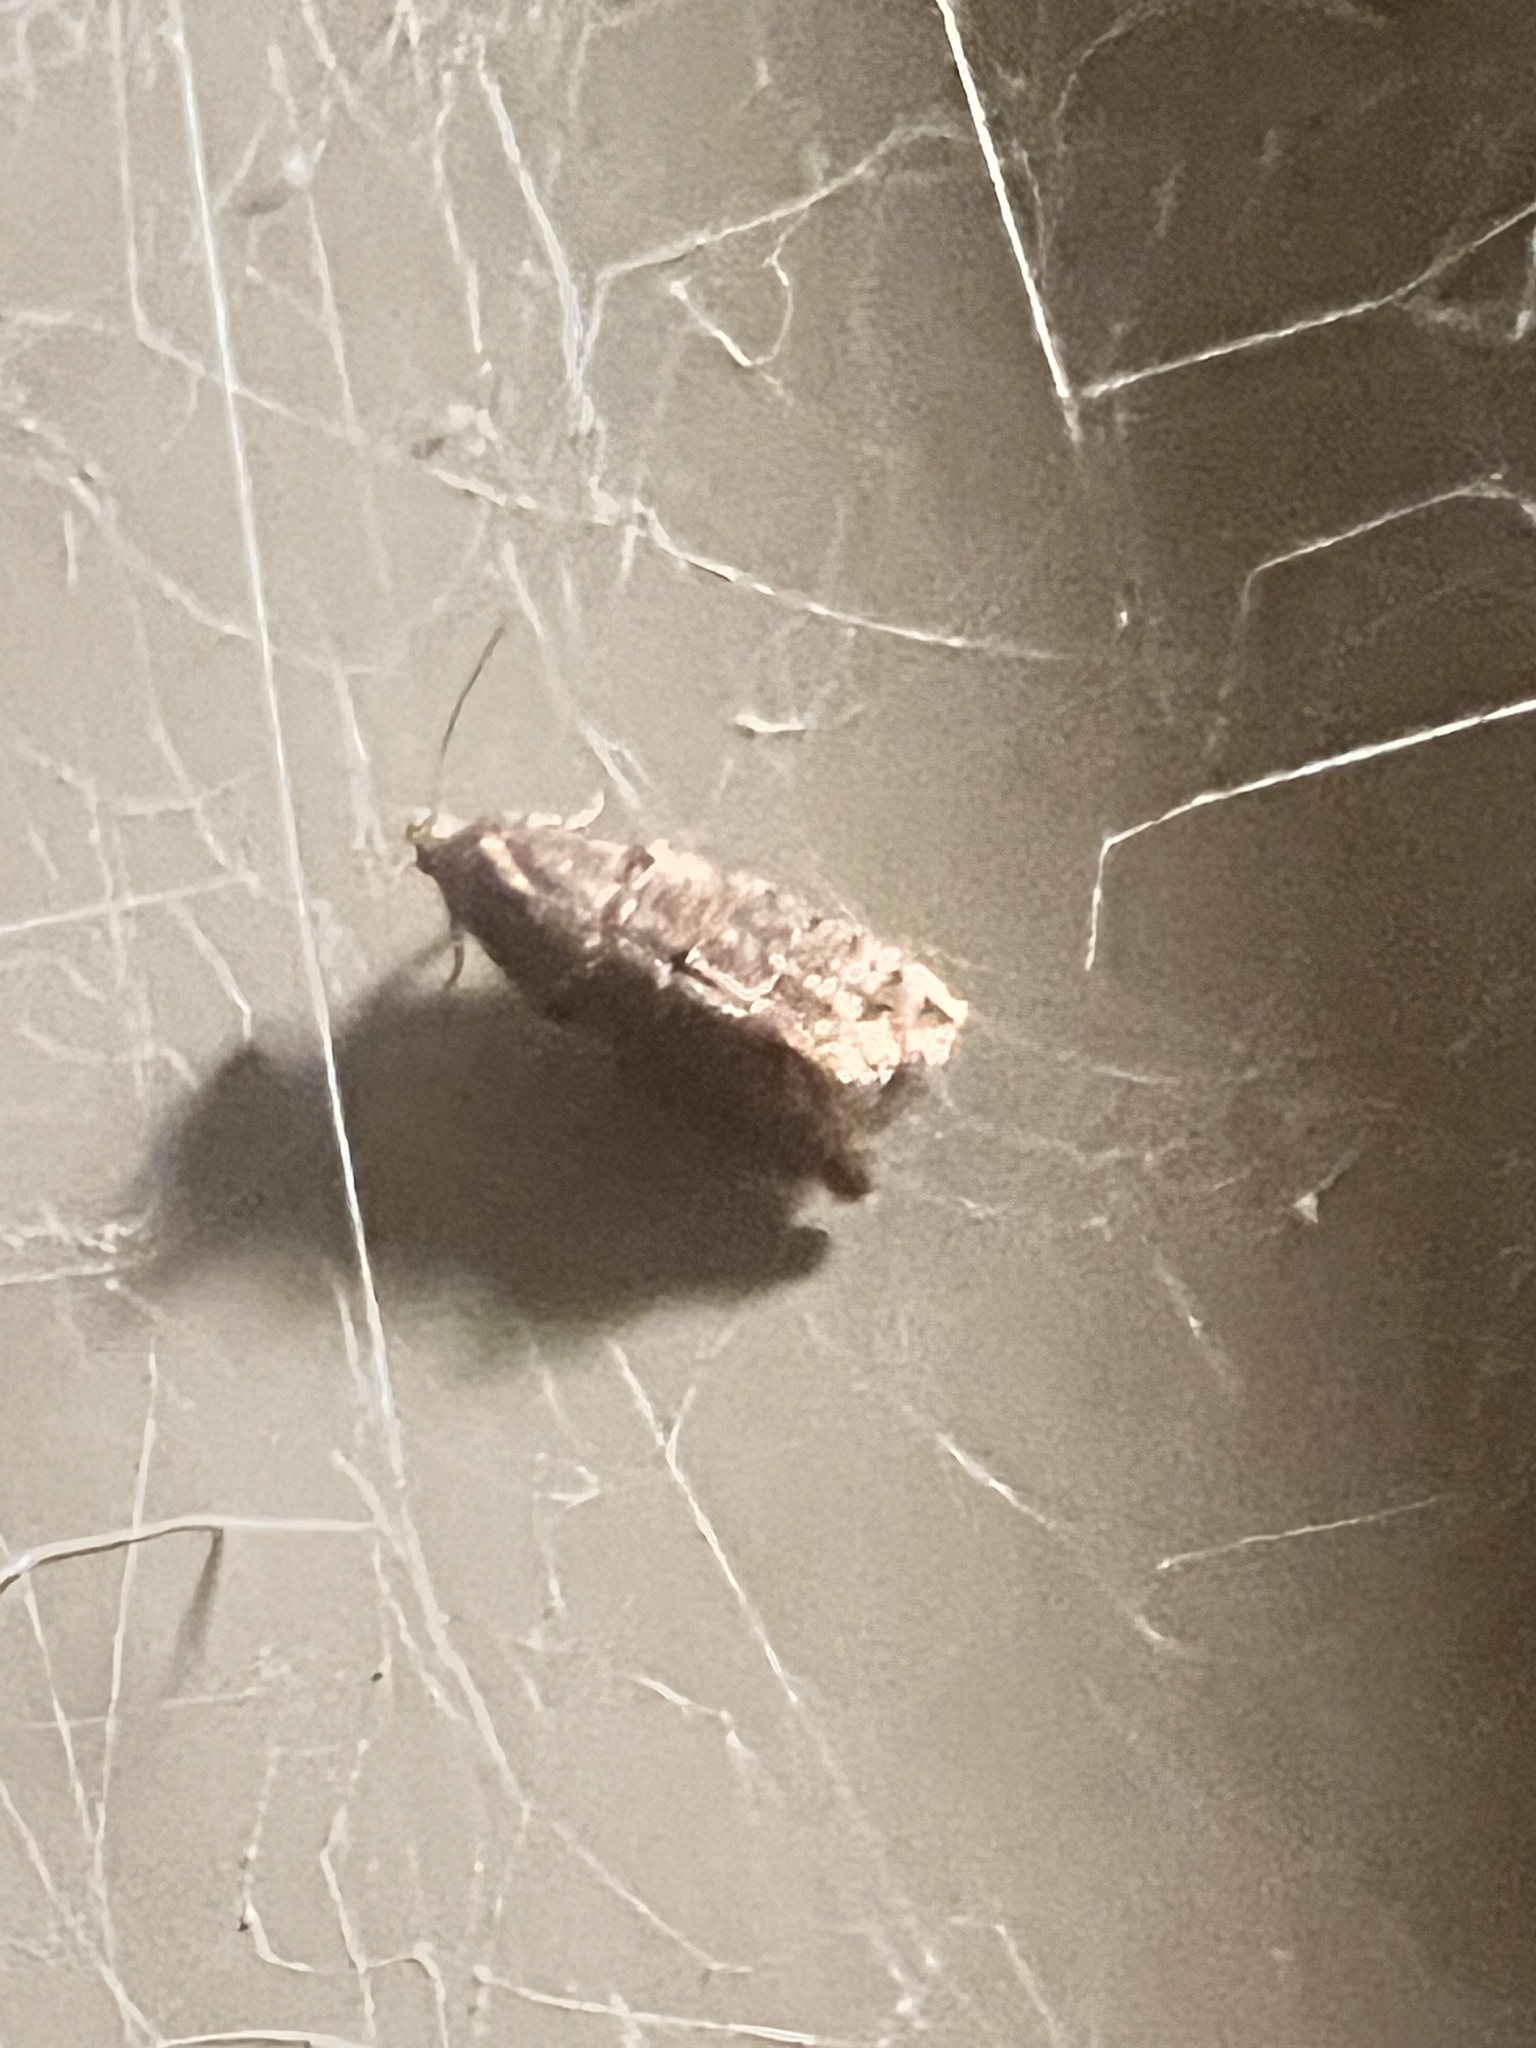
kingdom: Animalia
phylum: Arthropoda
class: Insecta
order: Lepidoptera
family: Tortricidae
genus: Lopharcha
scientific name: Lopharcha insolita
